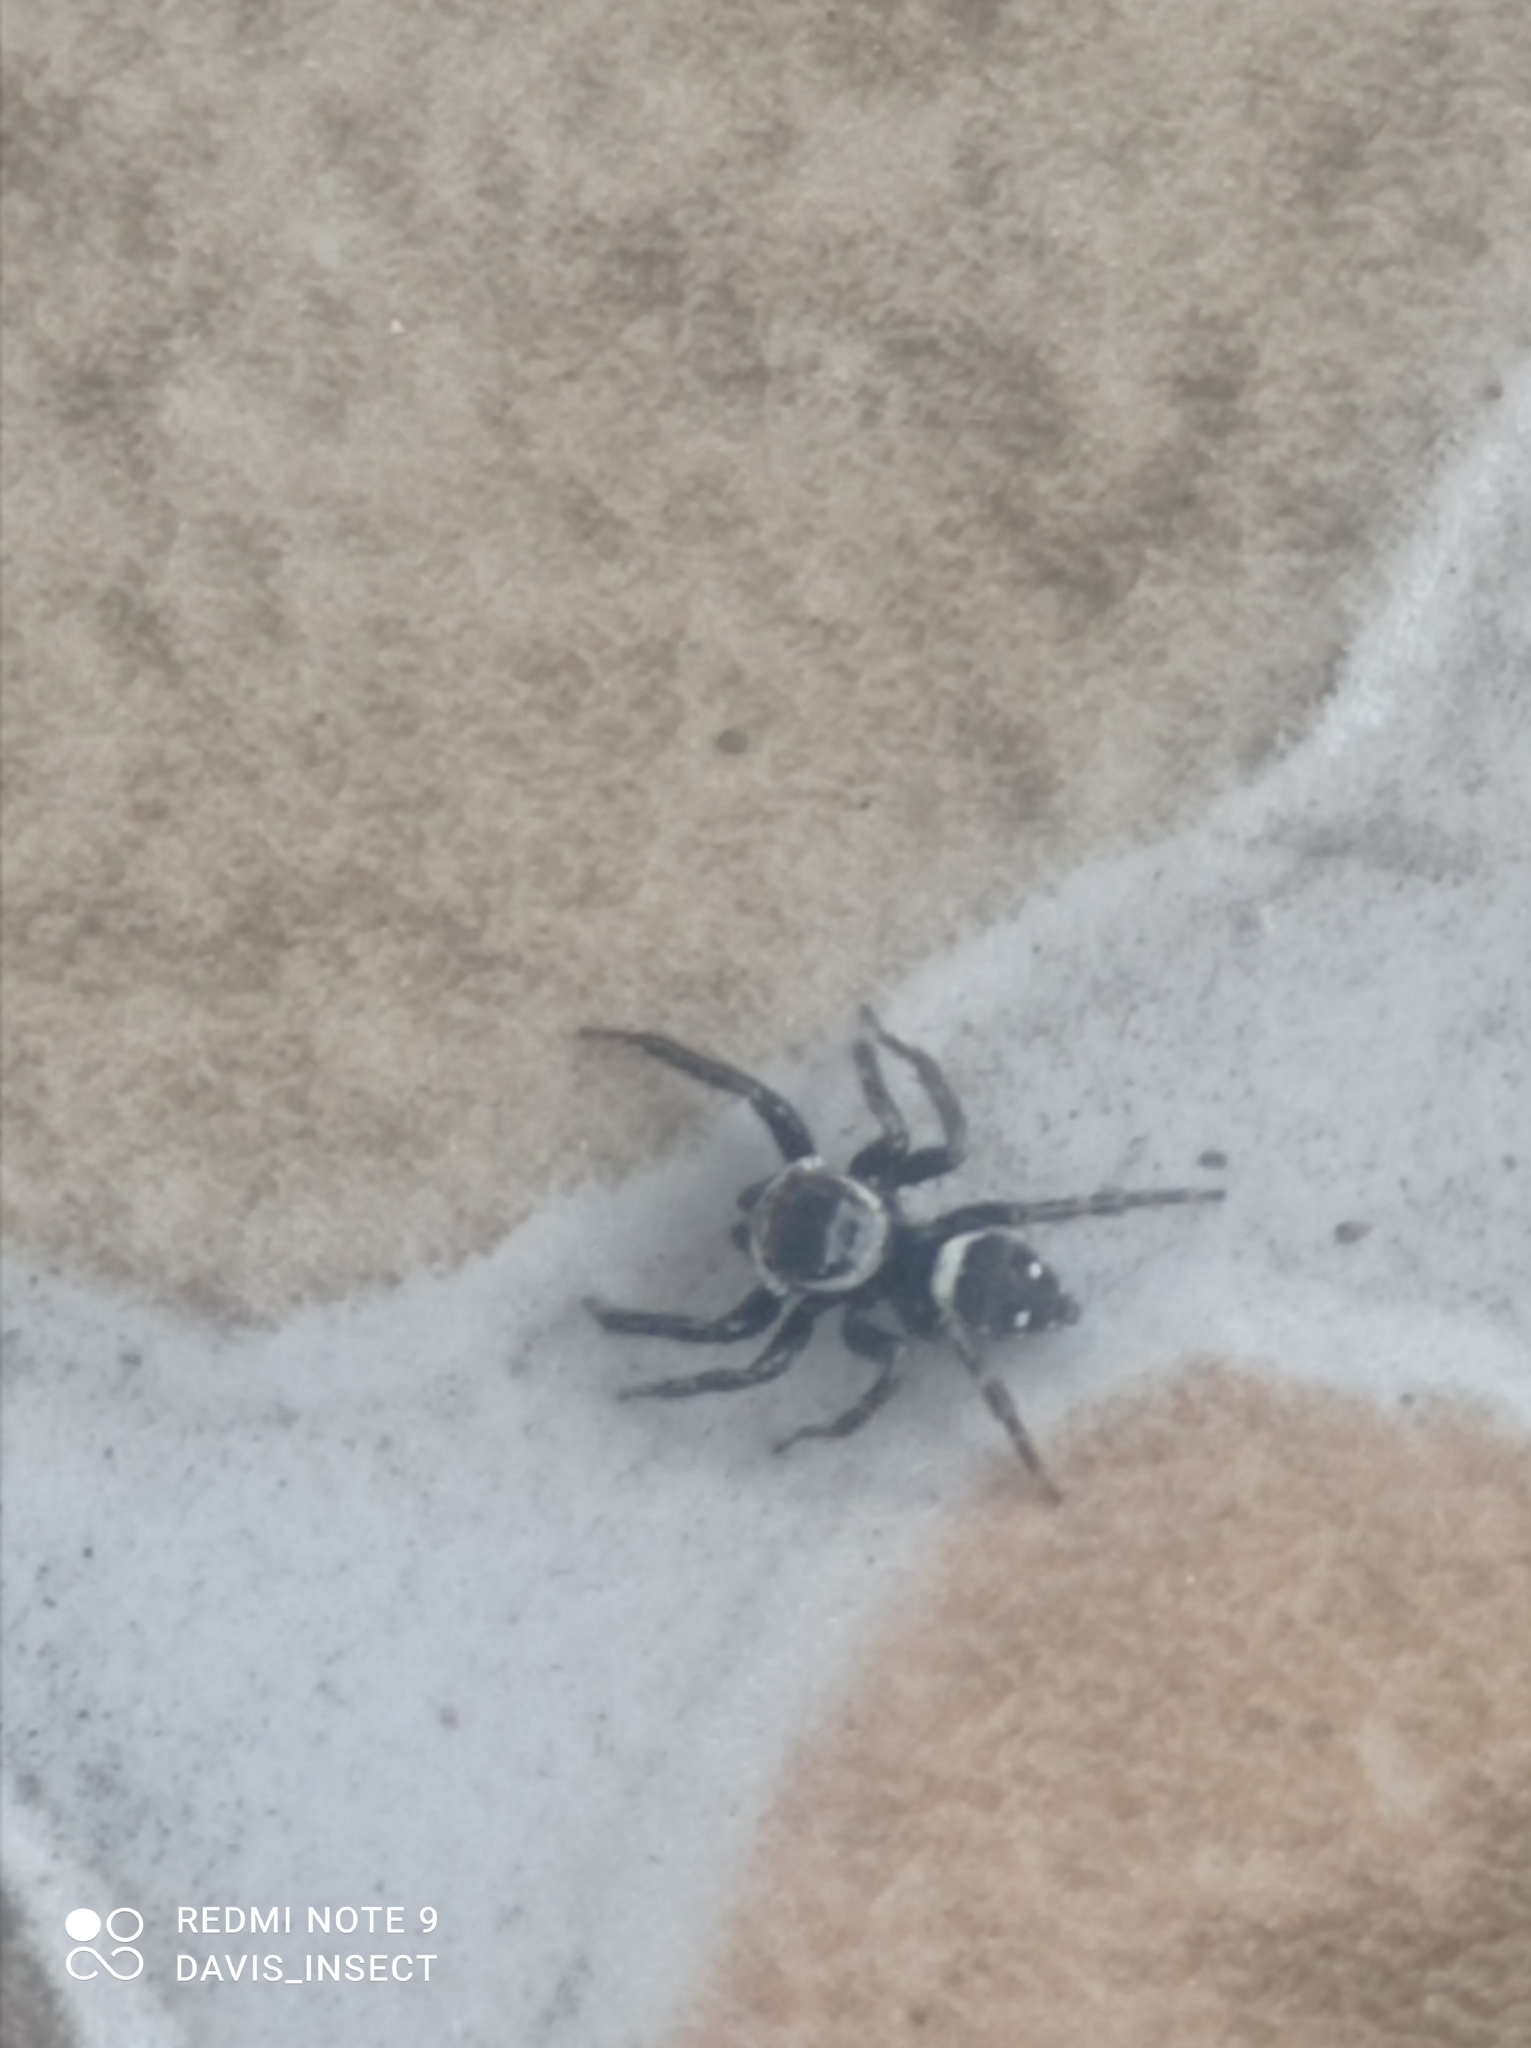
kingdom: Animalia
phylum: Arthropoda
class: Arachnida
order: Araneae
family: Salticidae
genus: Hasarius
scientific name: Hasarius adansoni
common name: Jumping spider
